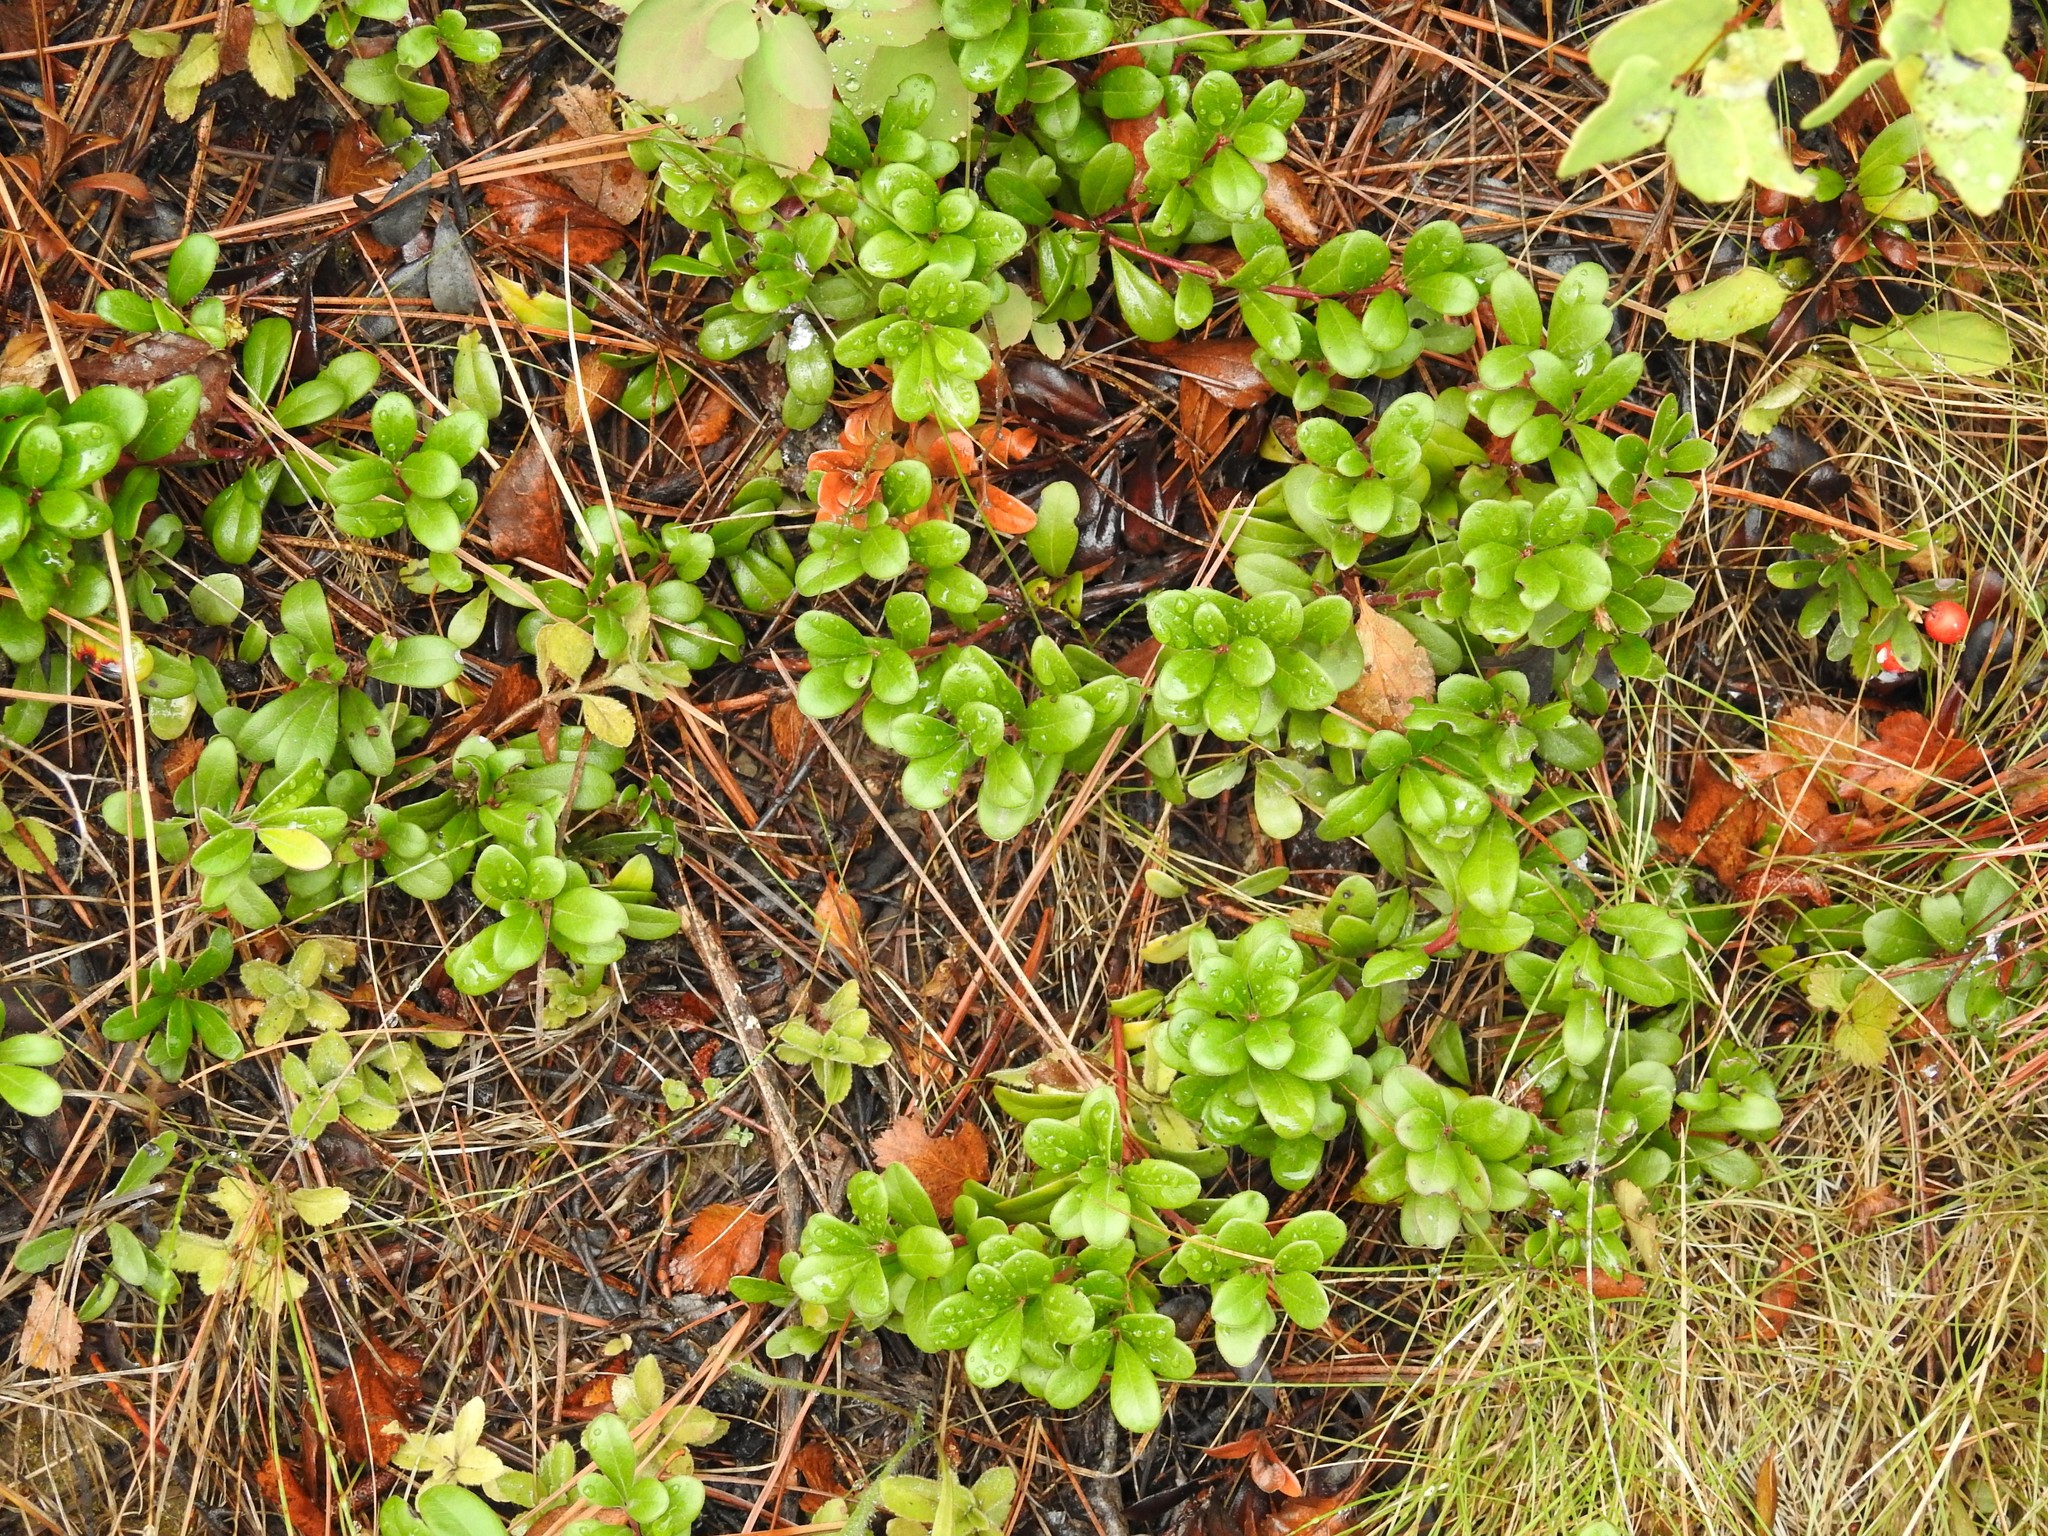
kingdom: Plantae
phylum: Tracheophyta
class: Magnoliopsida
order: Ericales
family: Ericaceae
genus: Arctostaphylos
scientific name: Arctostaphylos uva-ursi
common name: Bearberry
